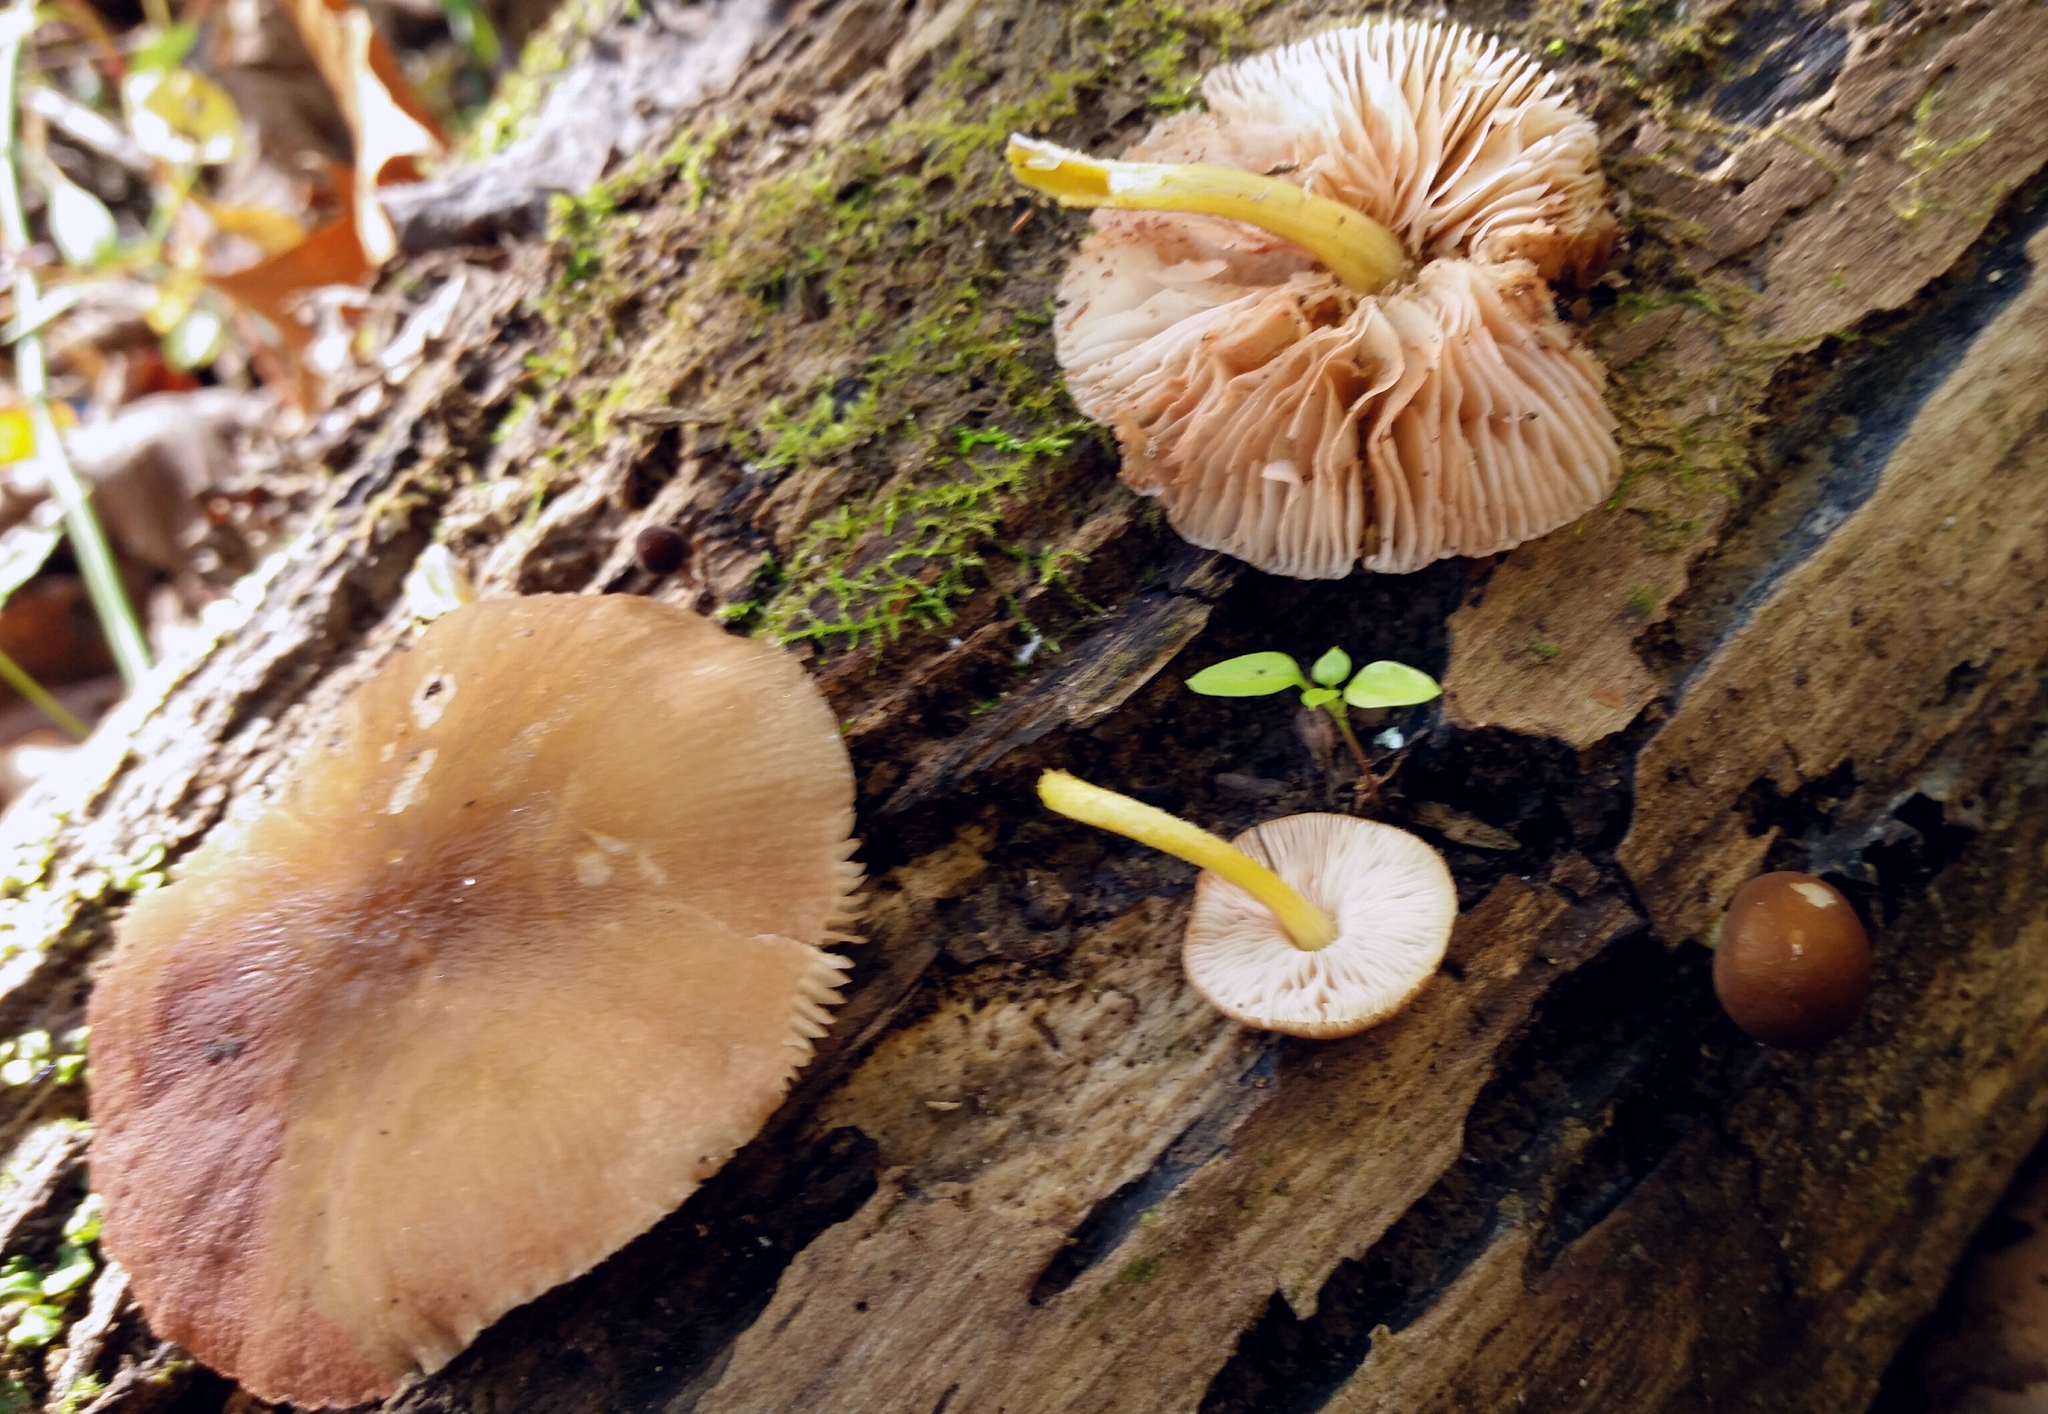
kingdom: Fungi
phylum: Basidiomycota
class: Agaricomycetes
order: Agaricales
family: Pluteaceae
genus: Pluteus
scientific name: Pluteus romellii
